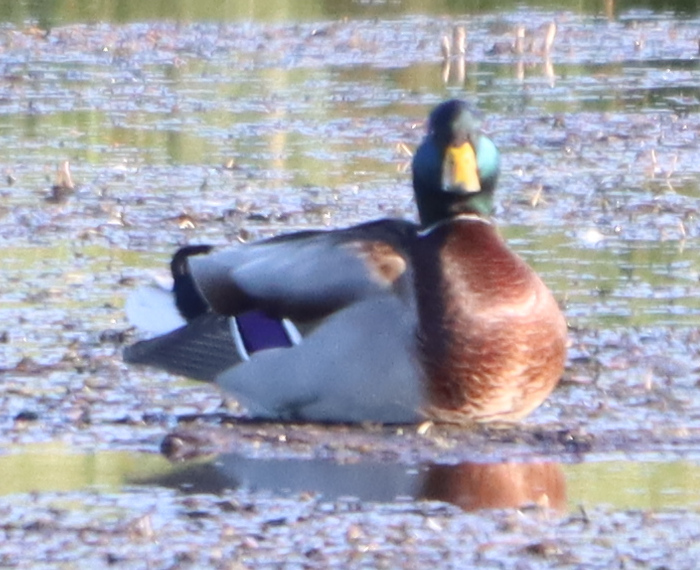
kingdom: Animalia
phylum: Chordata
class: Aves
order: Anseriformes
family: Anatidae
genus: Anas
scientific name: Anas platyrhynchos
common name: Mallard
